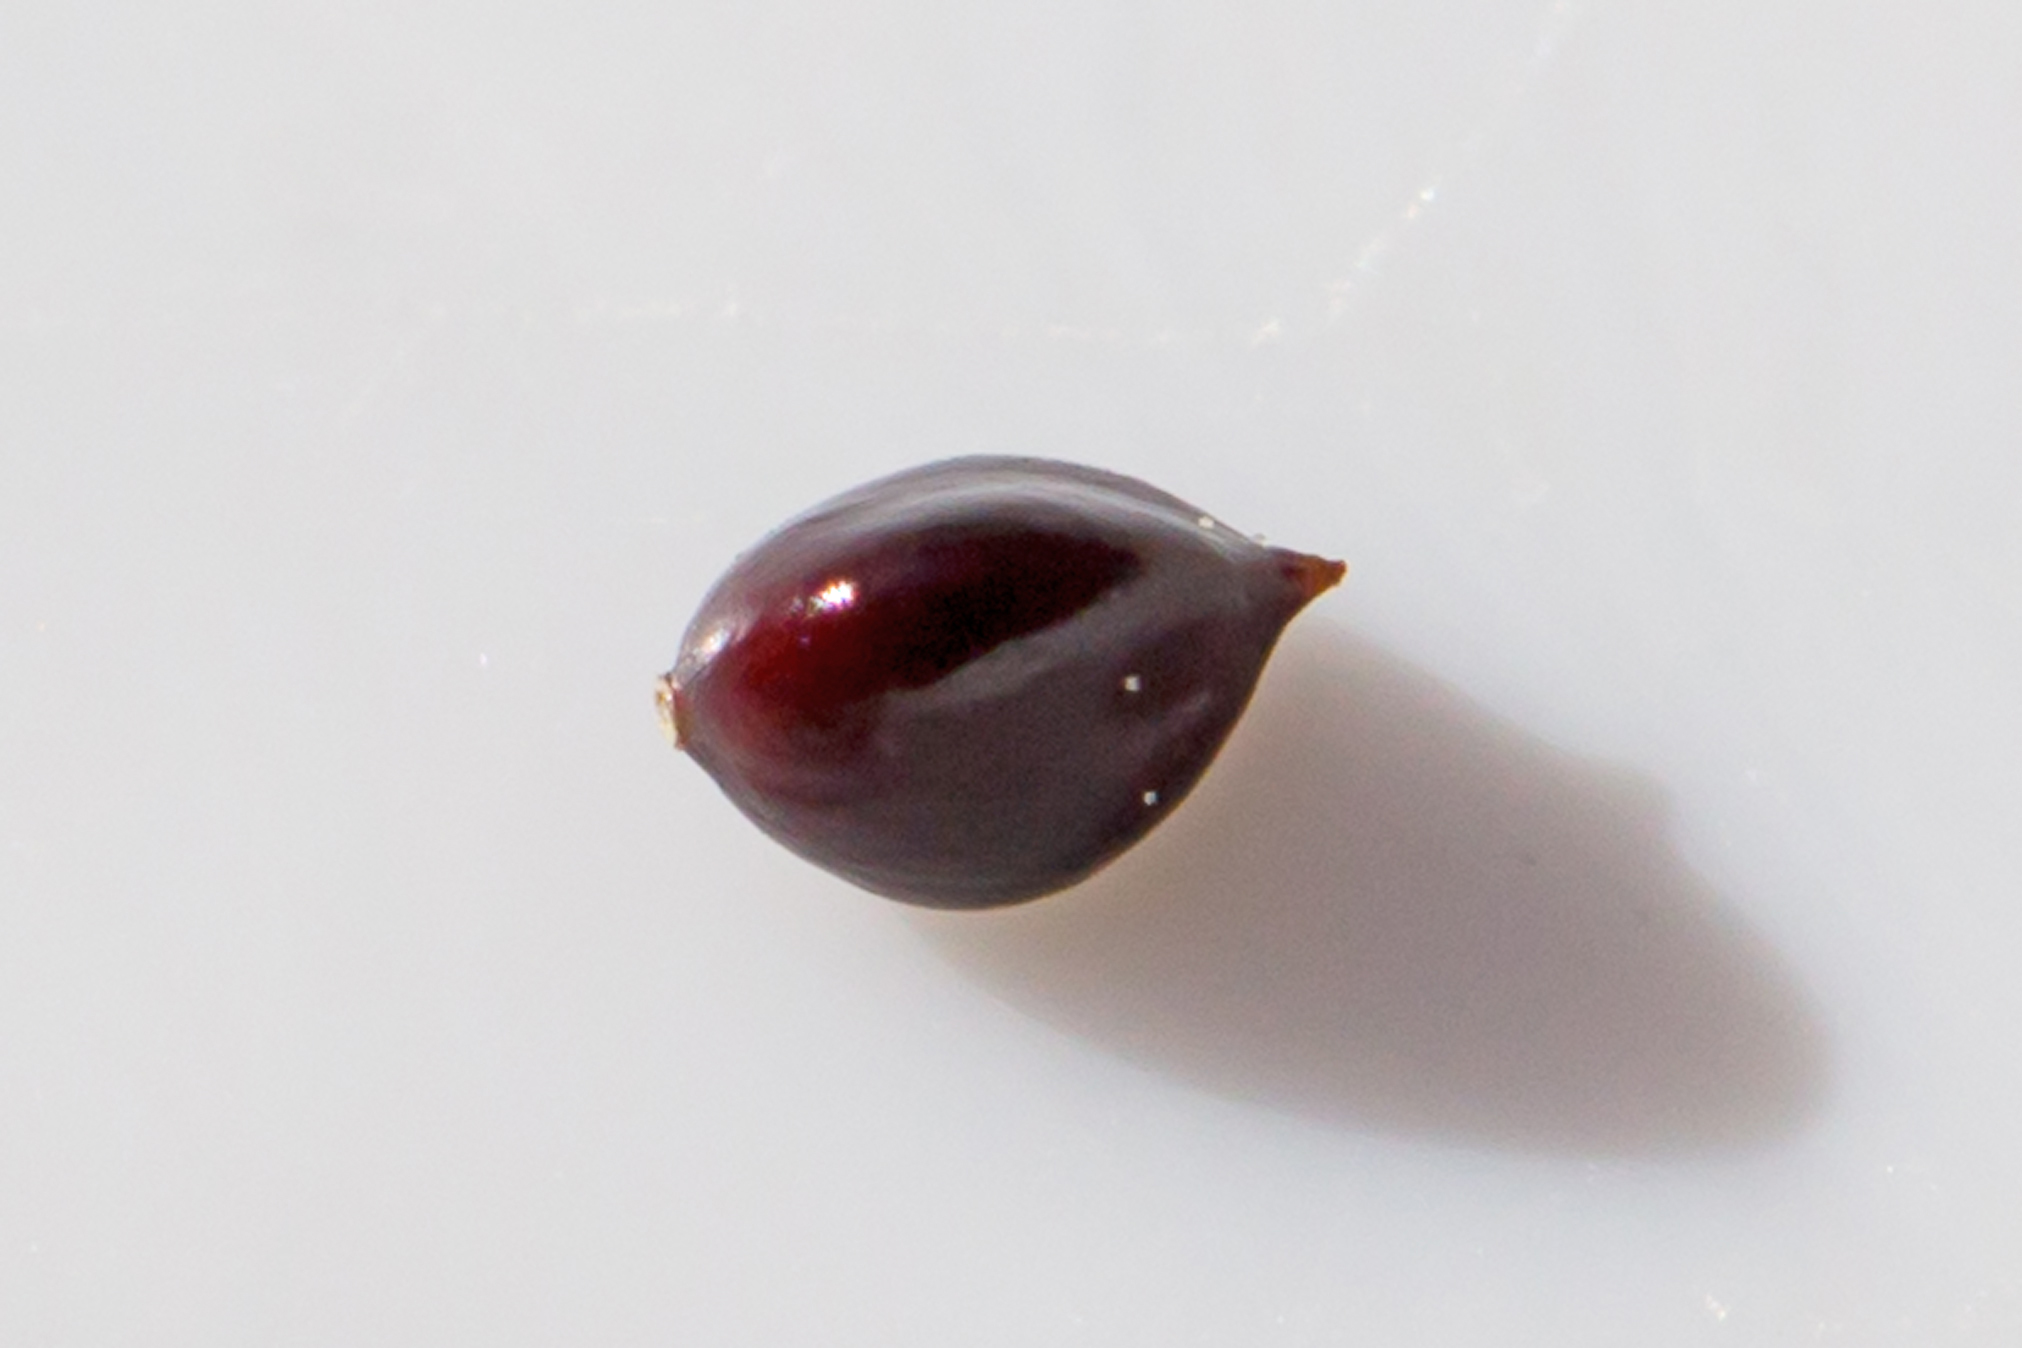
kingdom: Plantae
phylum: Tracheophyta
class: Magnoliopsida
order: Caryophyllales
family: Polygonaceae
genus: Persicaria
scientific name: Persicaria longiseta
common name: Bristly lady's-thumb
